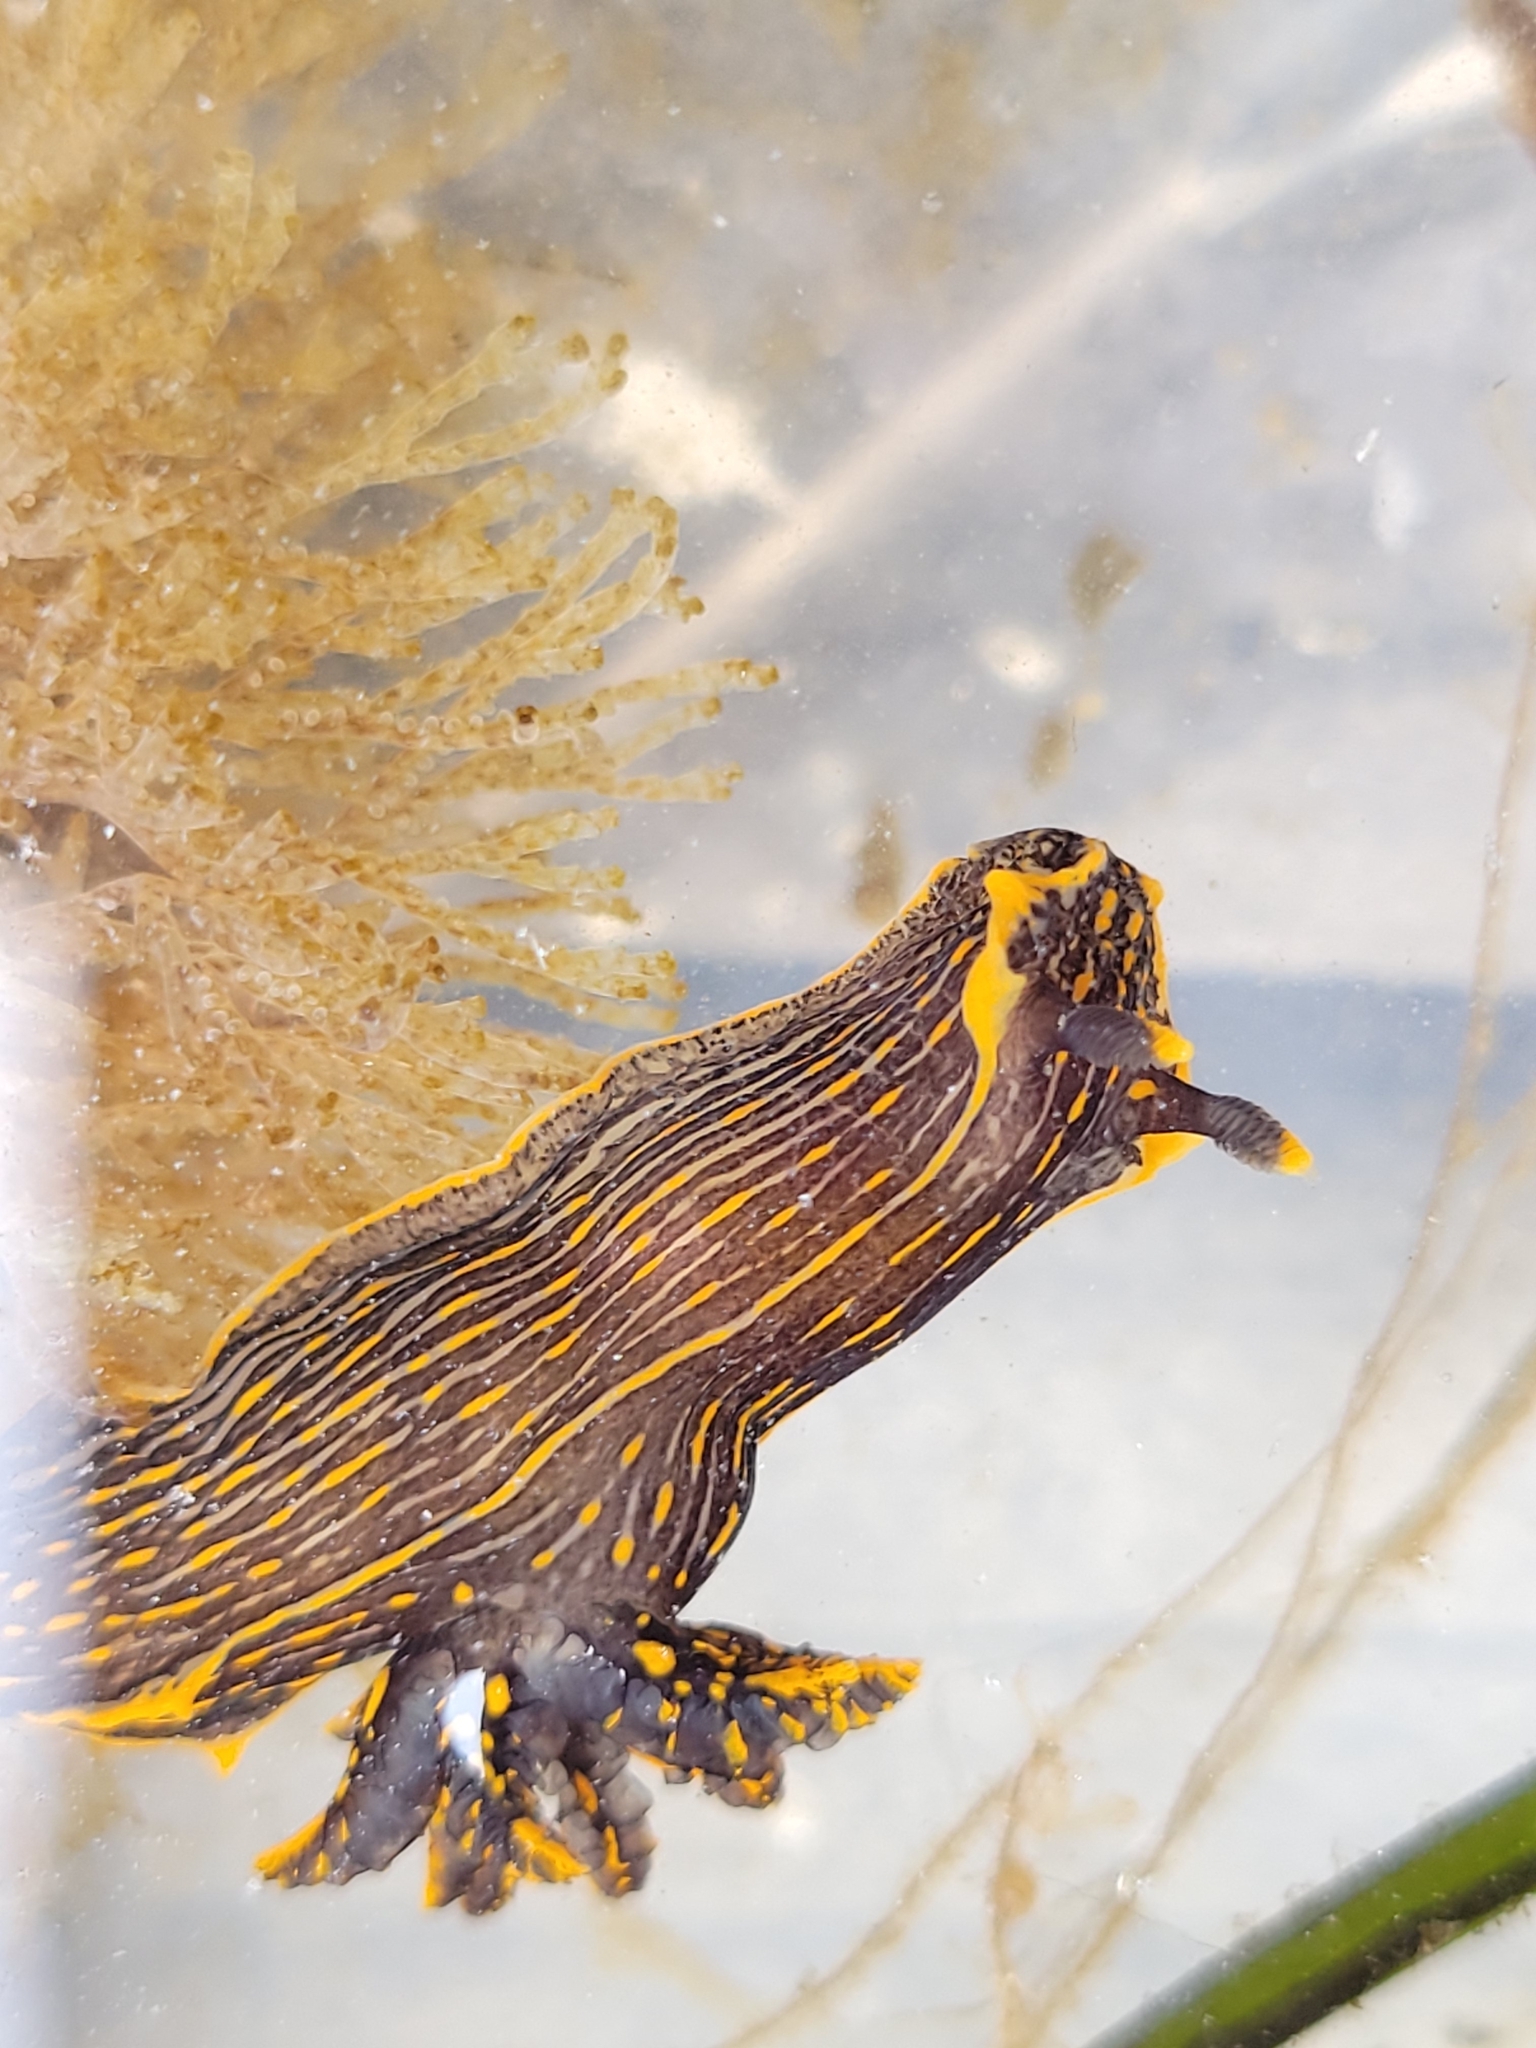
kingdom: Animalia
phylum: Mollusca
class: Gastropoda
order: Nudibranchia
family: Polyceridae
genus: Polycera
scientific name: Polycera atra
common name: Orange-spike polycera
